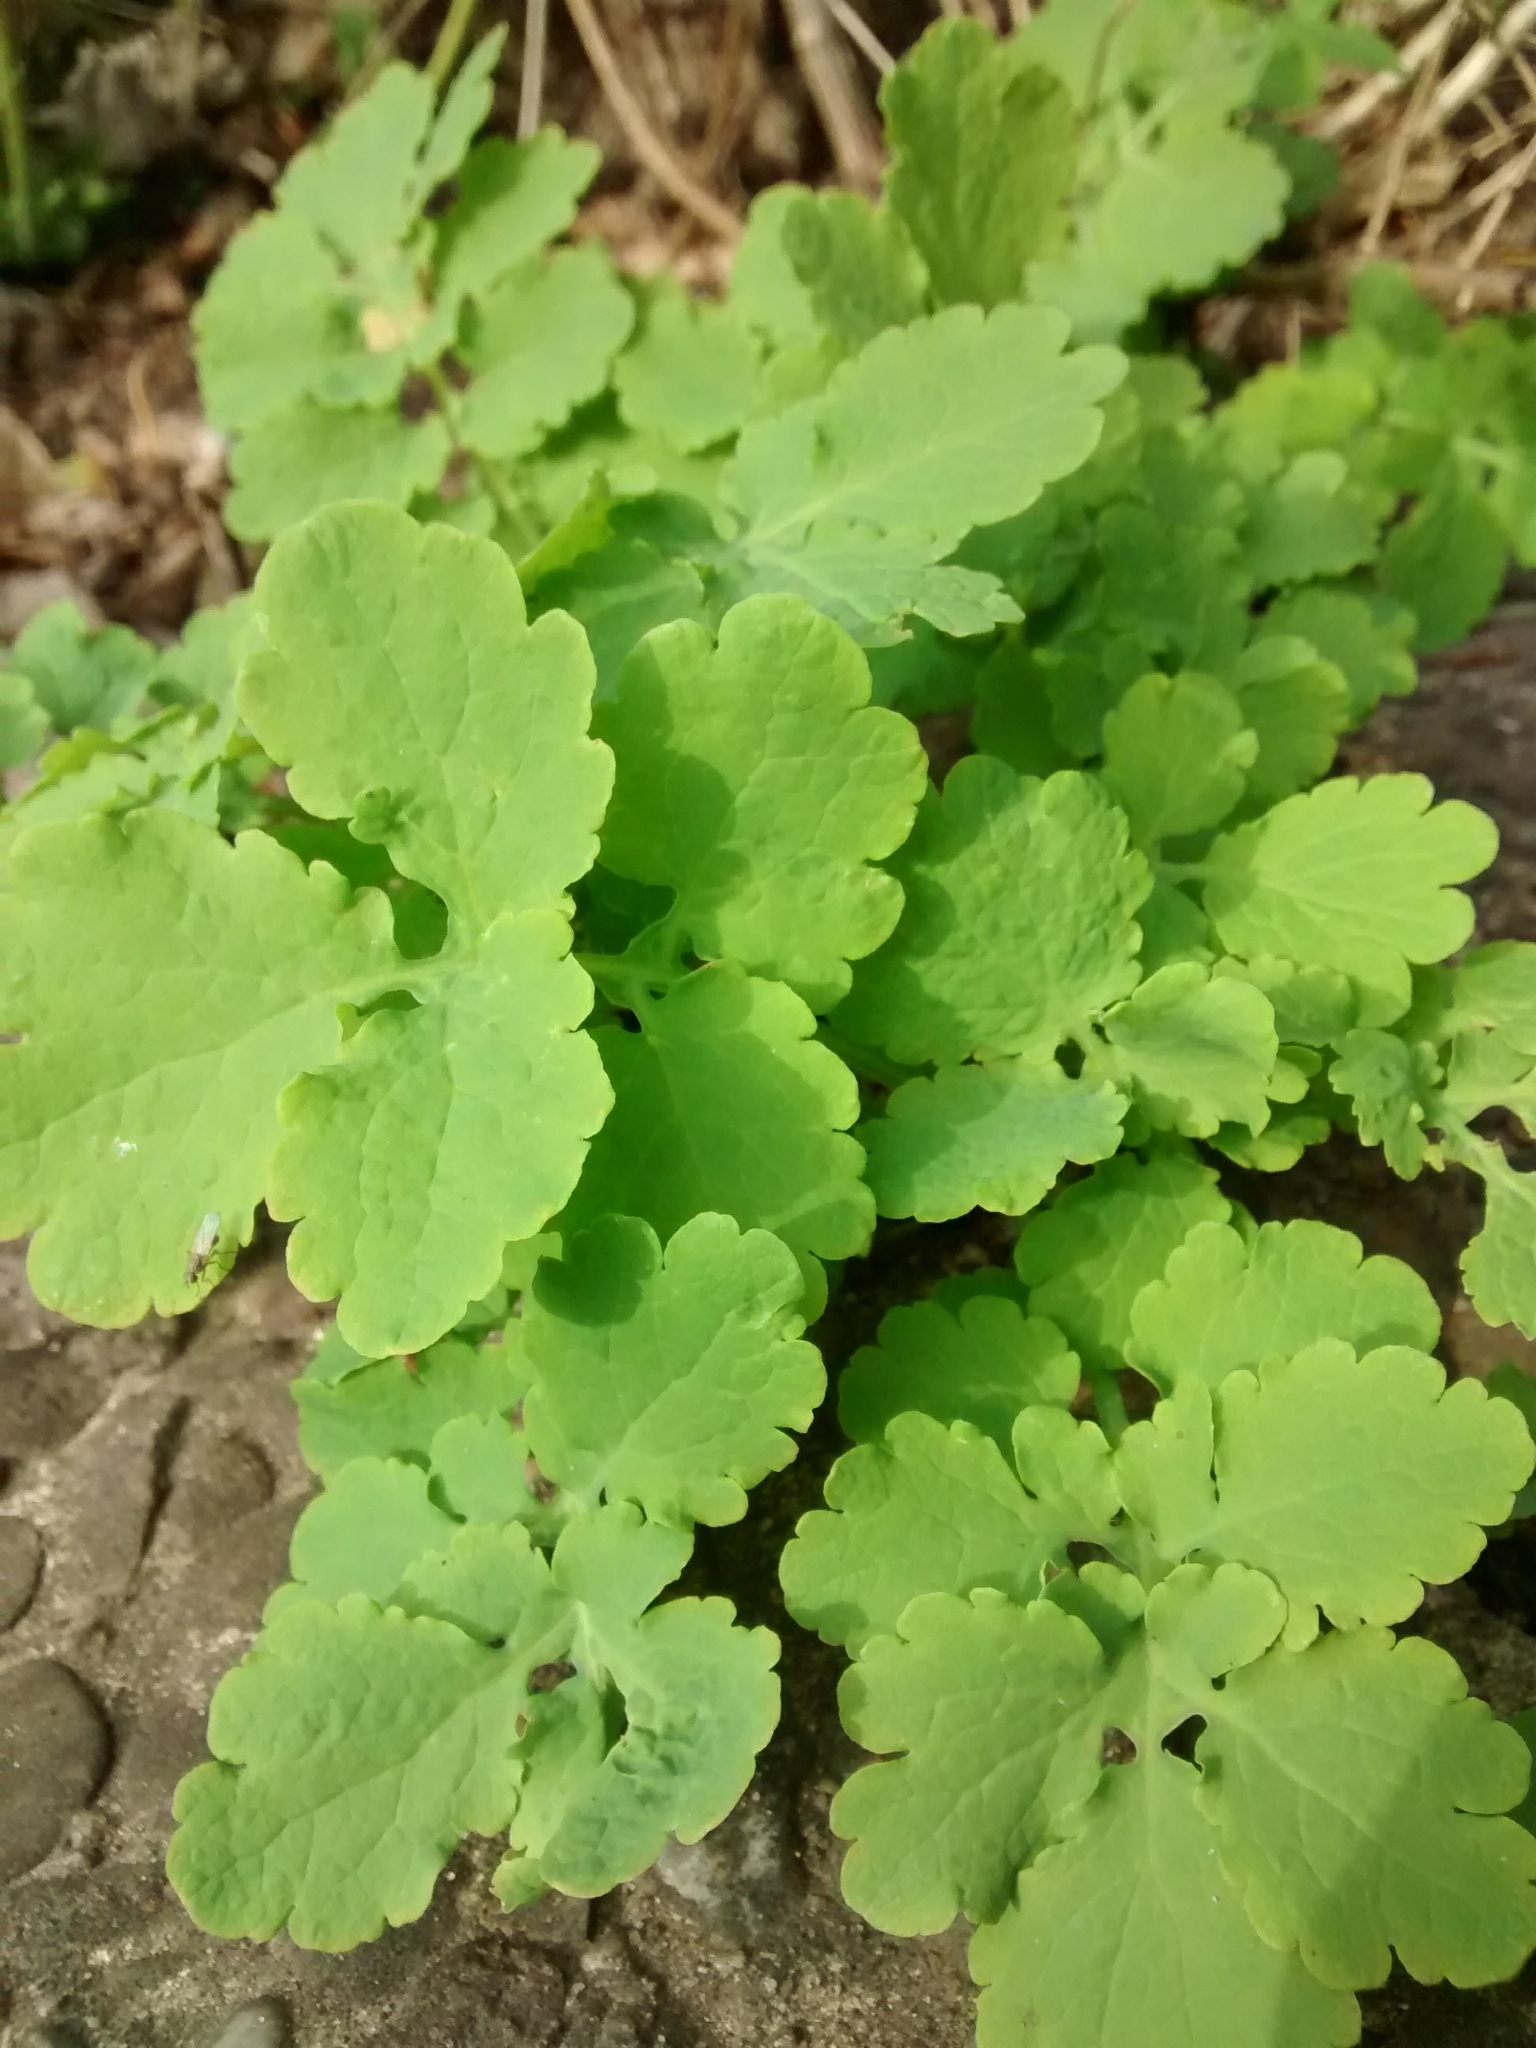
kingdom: Plantae
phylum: Tracheophyta
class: Magnoliopsida
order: Ranunculales
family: Papaveraceae
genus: Chelidonium
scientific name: Chelidonium majus
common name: Greater celandine
